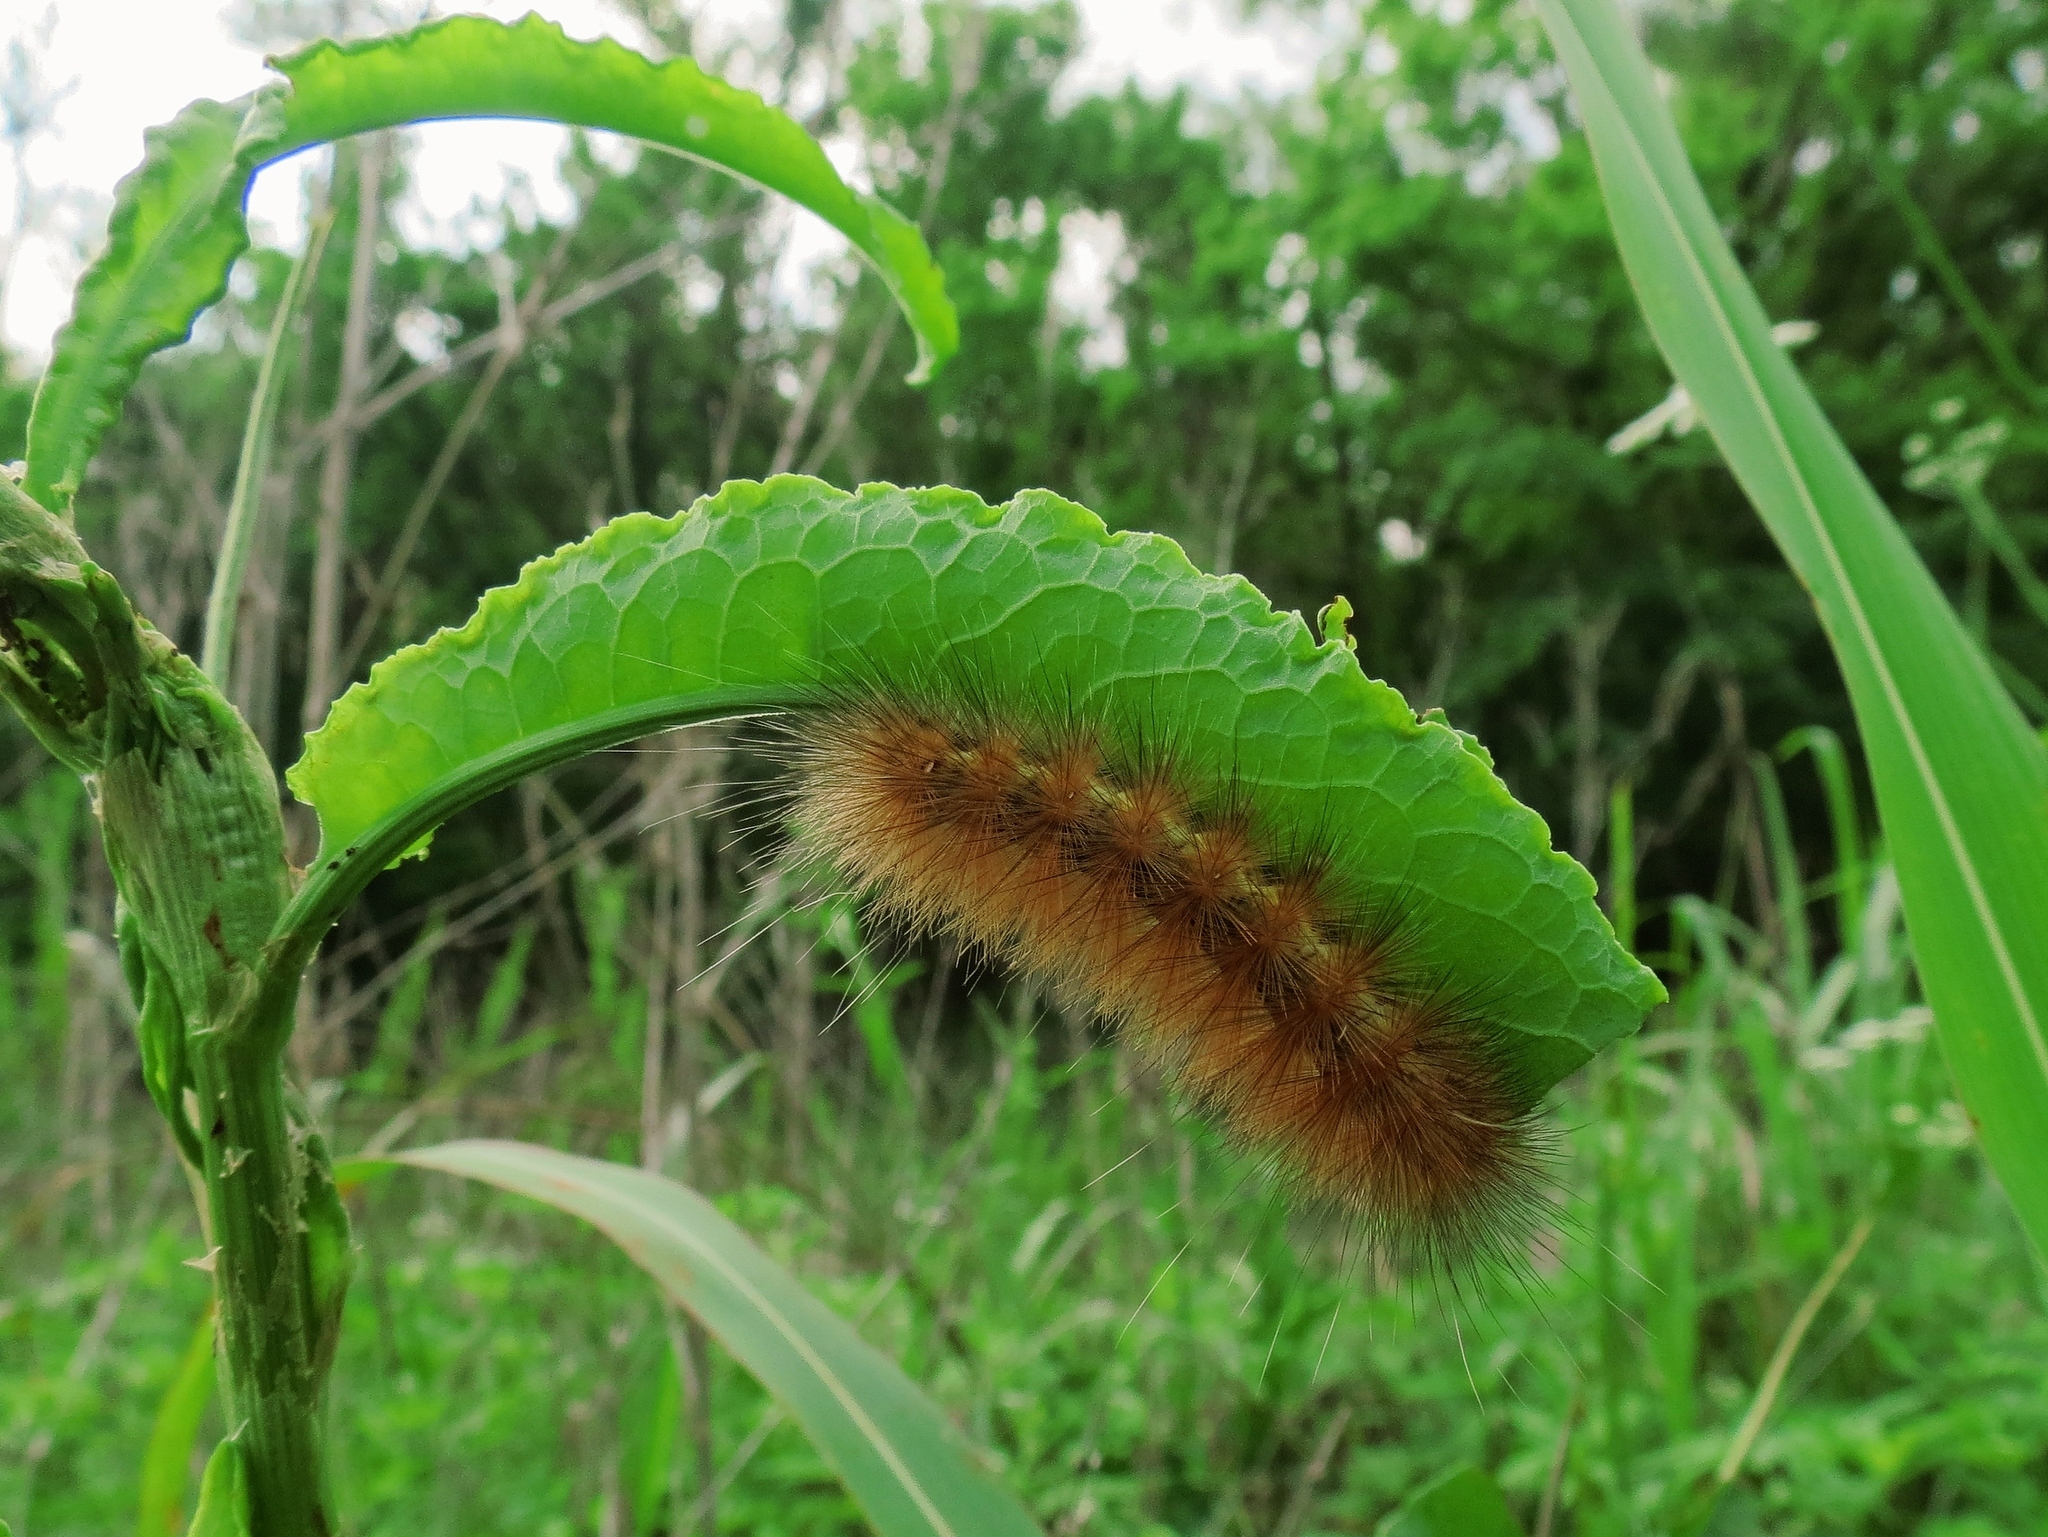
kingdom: Animalia
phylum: Arthropoda
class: Insecta
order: Lepidoptera
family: Erebidae
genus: Estigmene
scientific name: Estigmene acrea
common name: Salt marsh moth
